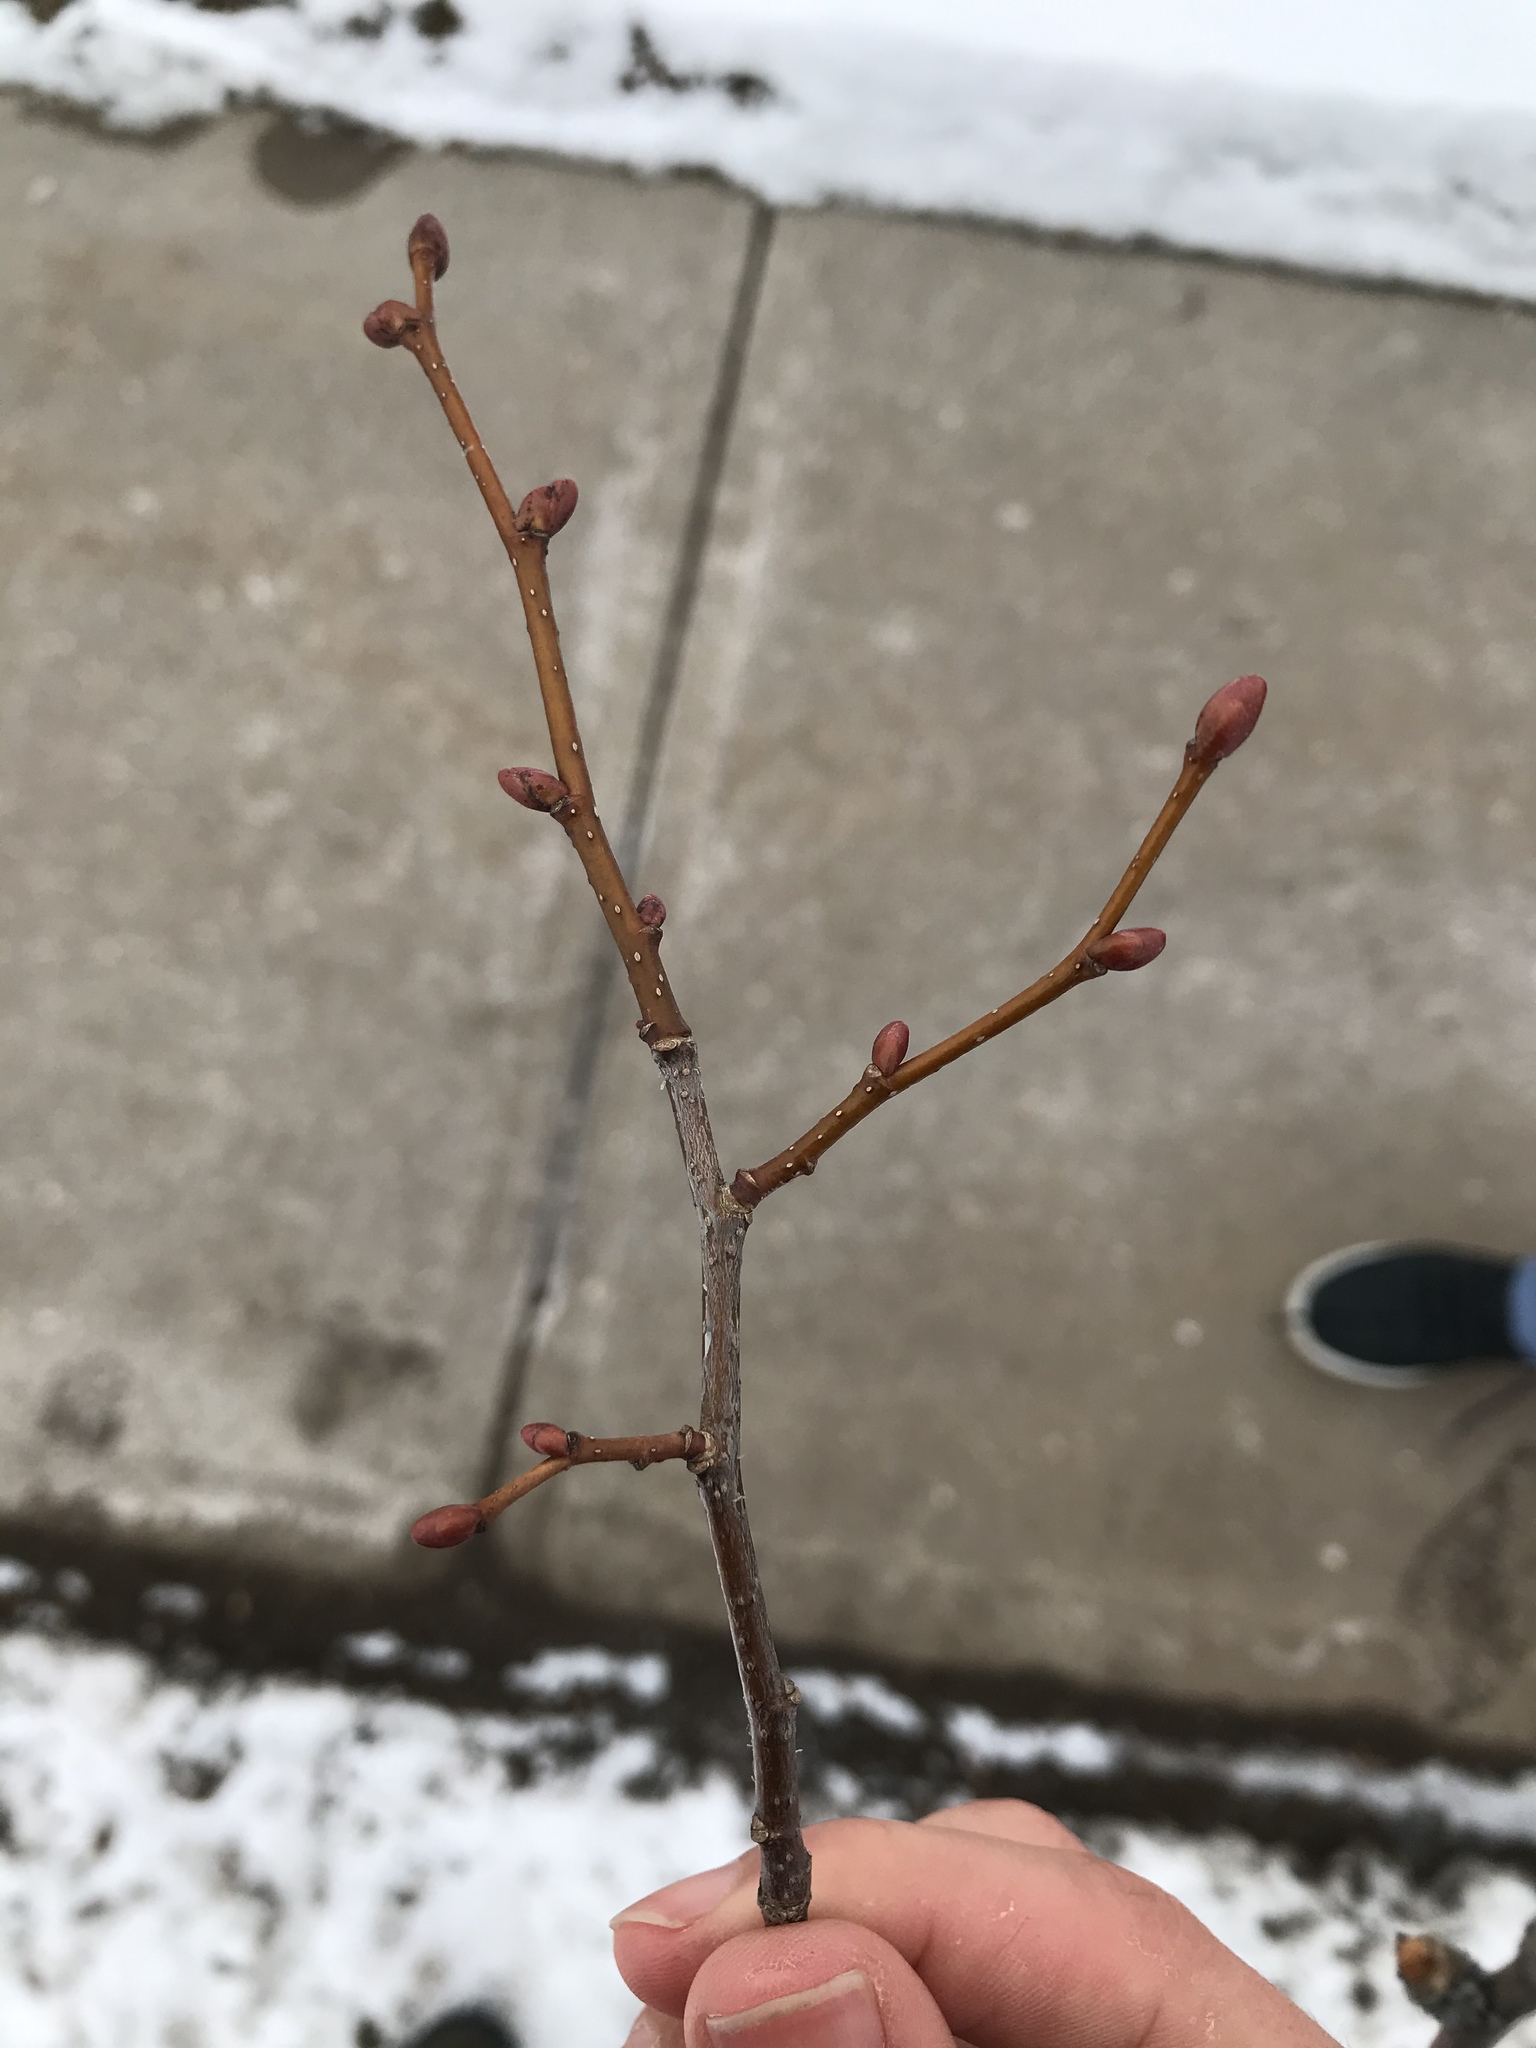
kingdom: Plantae
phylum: Tracheophyta
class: Magnoliopsida
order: Malvales
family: Malvaceae
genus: Tilia
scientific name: Tilia cordata
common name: Small-leaved lime
